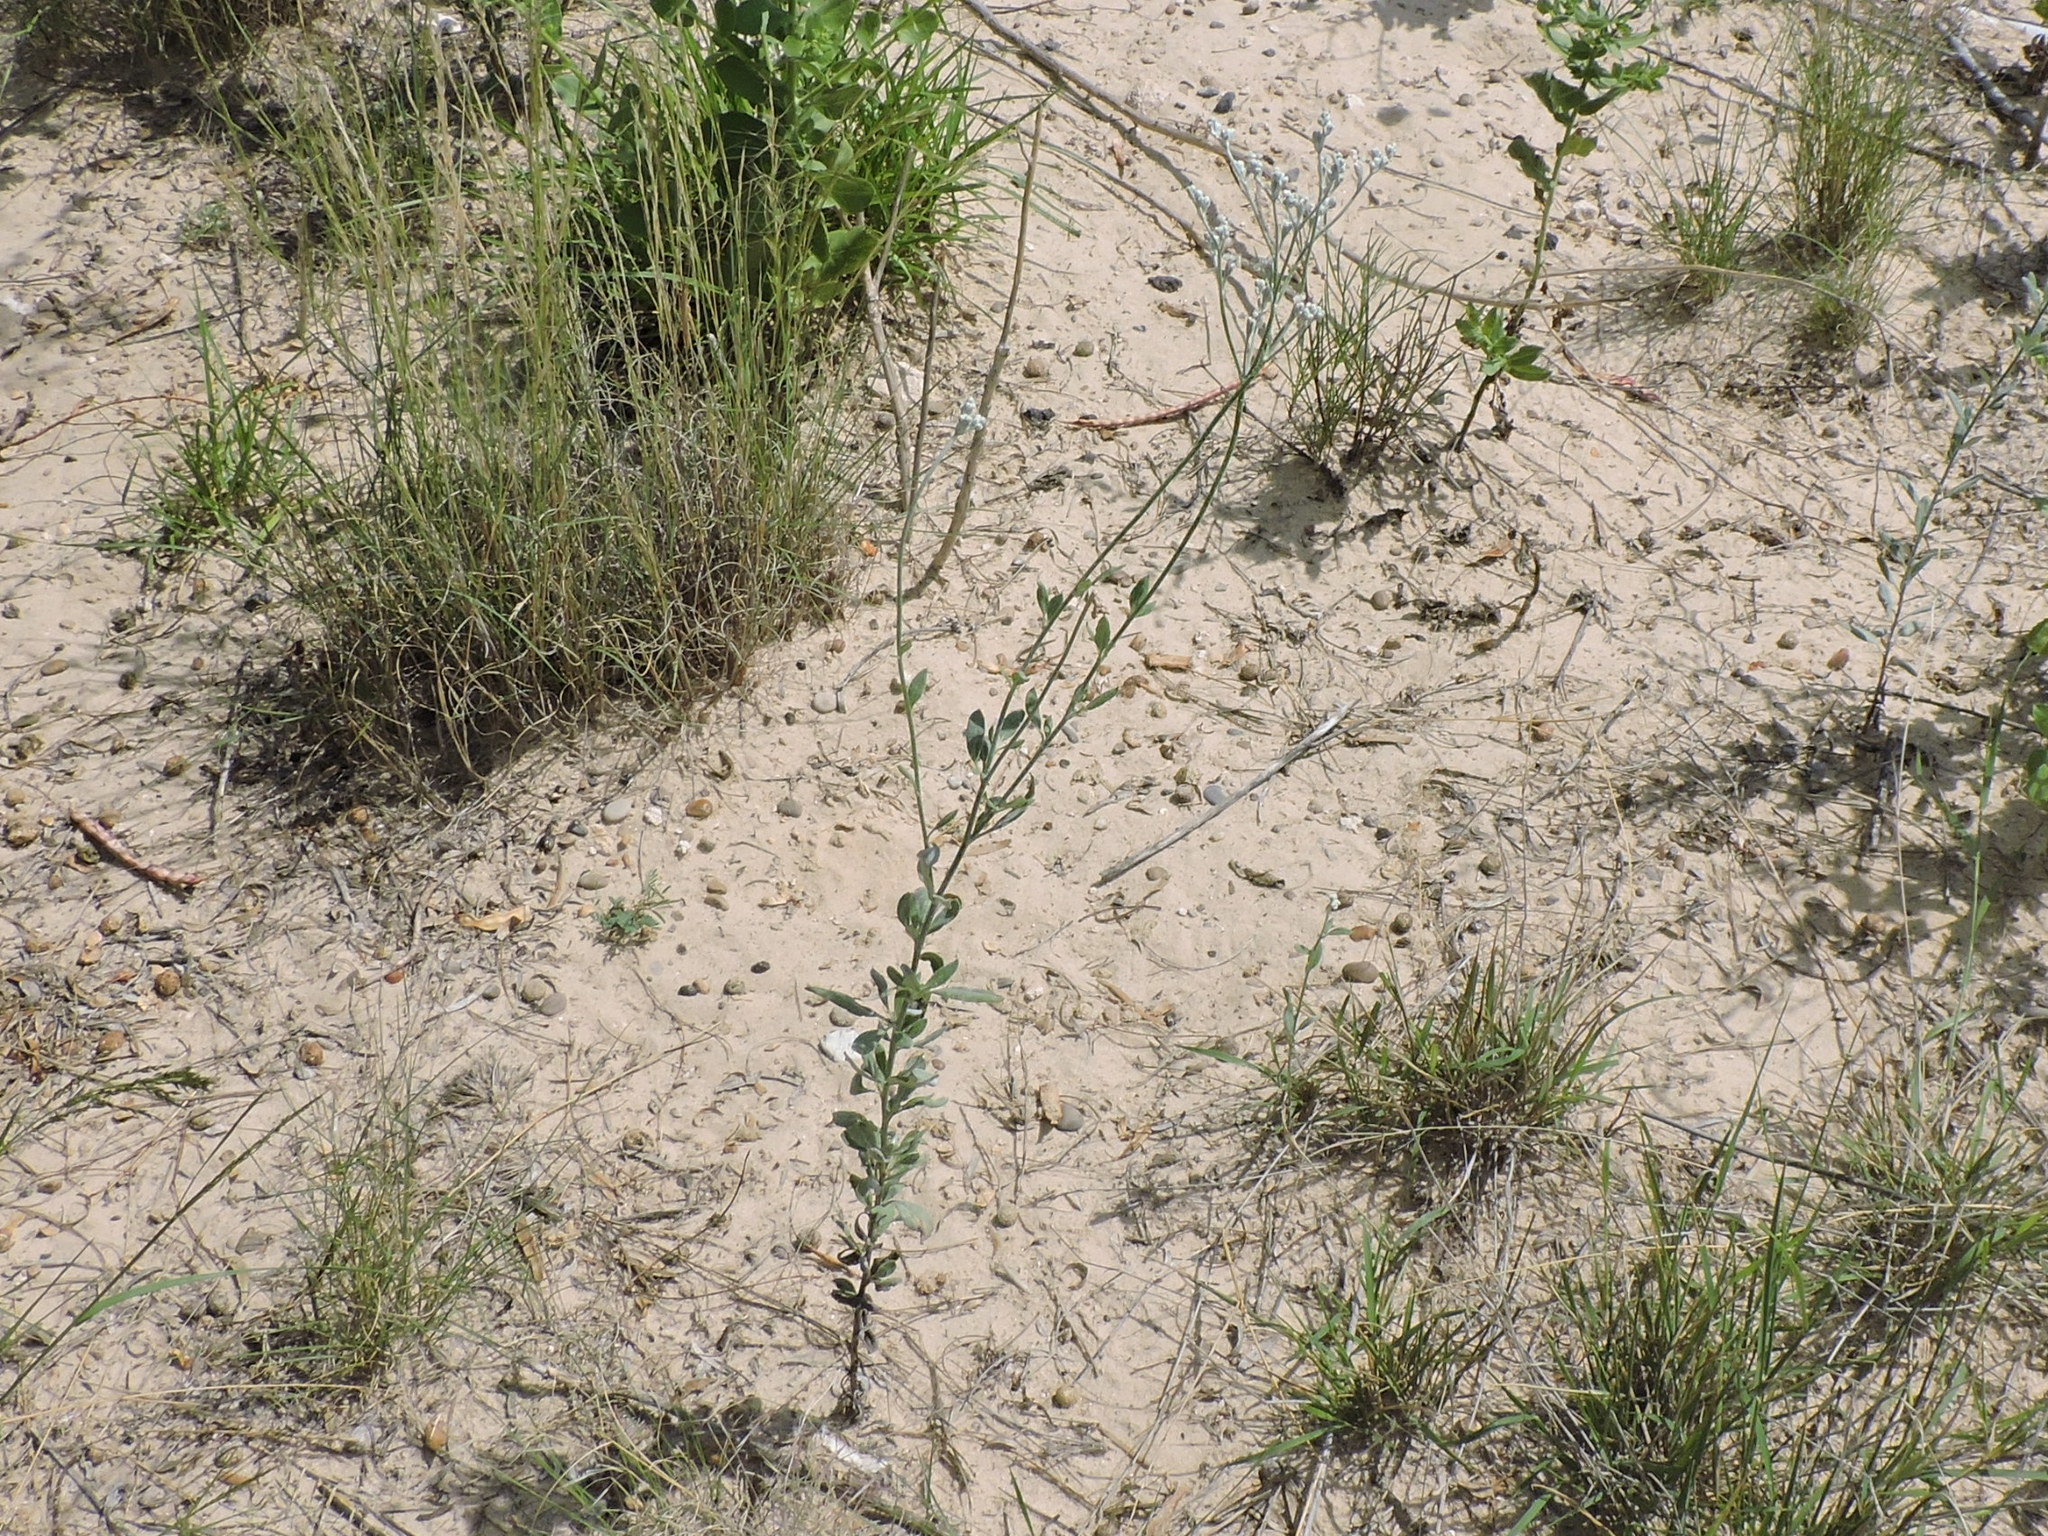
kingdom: Plantae
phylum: Tracheophyta
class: Magnoliopsida
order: Caryophyllales
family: Polygonaceae
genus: Eriogonum
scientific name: Eriogonum annuum
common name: Annual wild buckwheat
